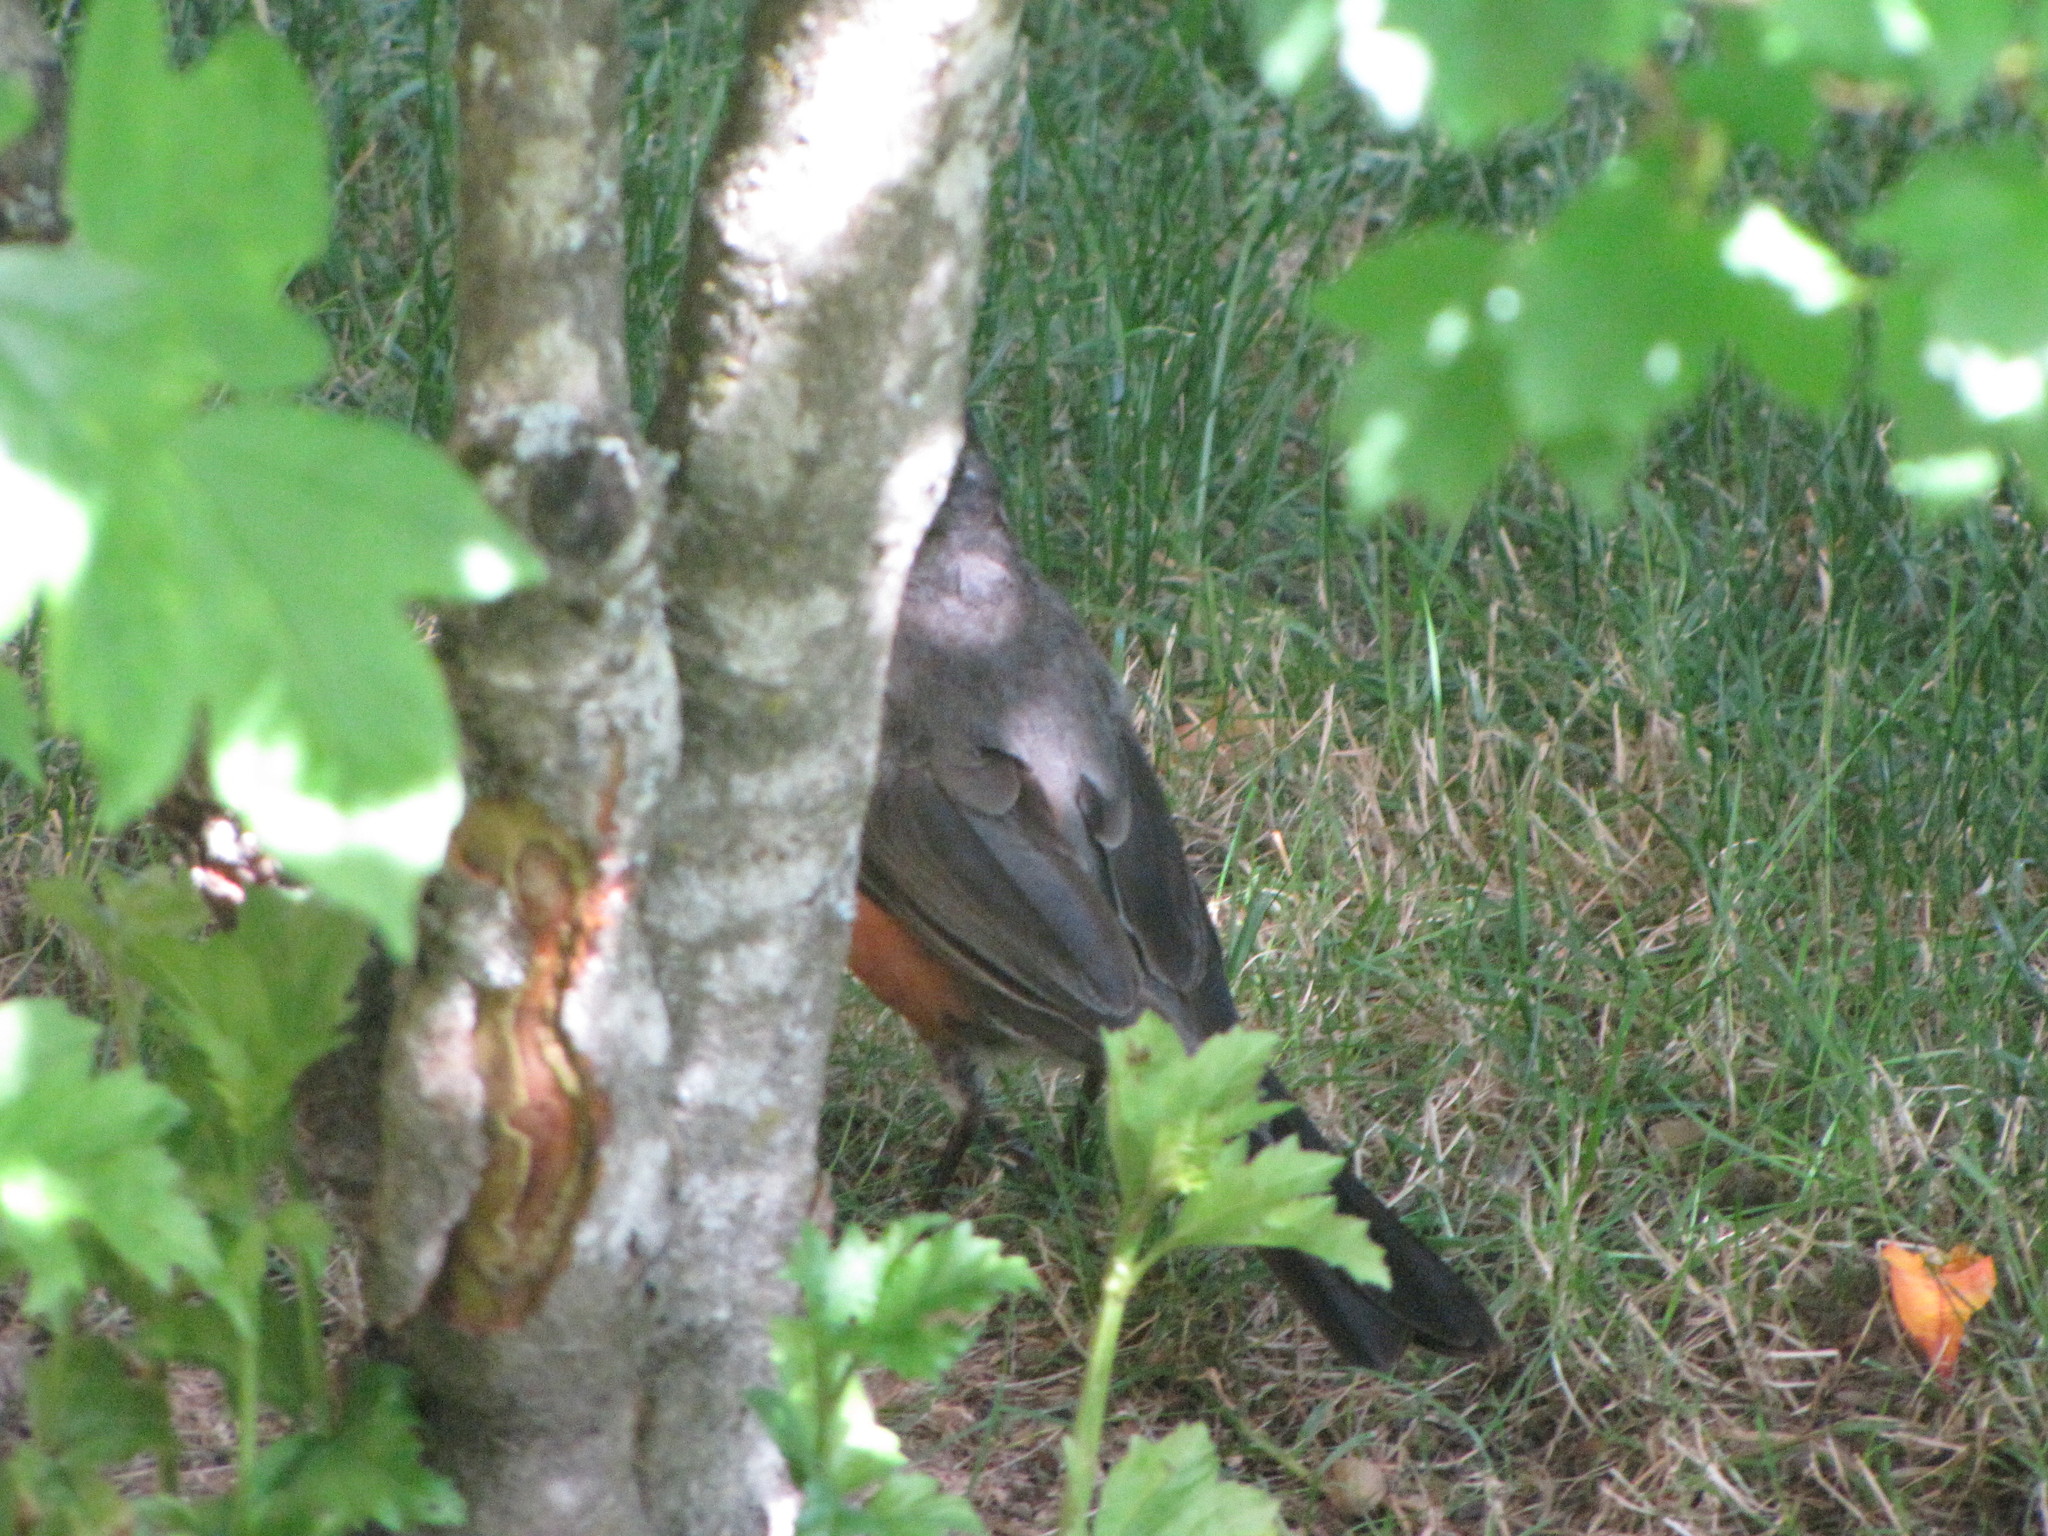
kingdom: Animalia
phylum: Chordata
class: Aves
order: Passeriformes
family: Turdidae
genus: Turdus
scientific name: Turdus migratorius
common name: American robin
